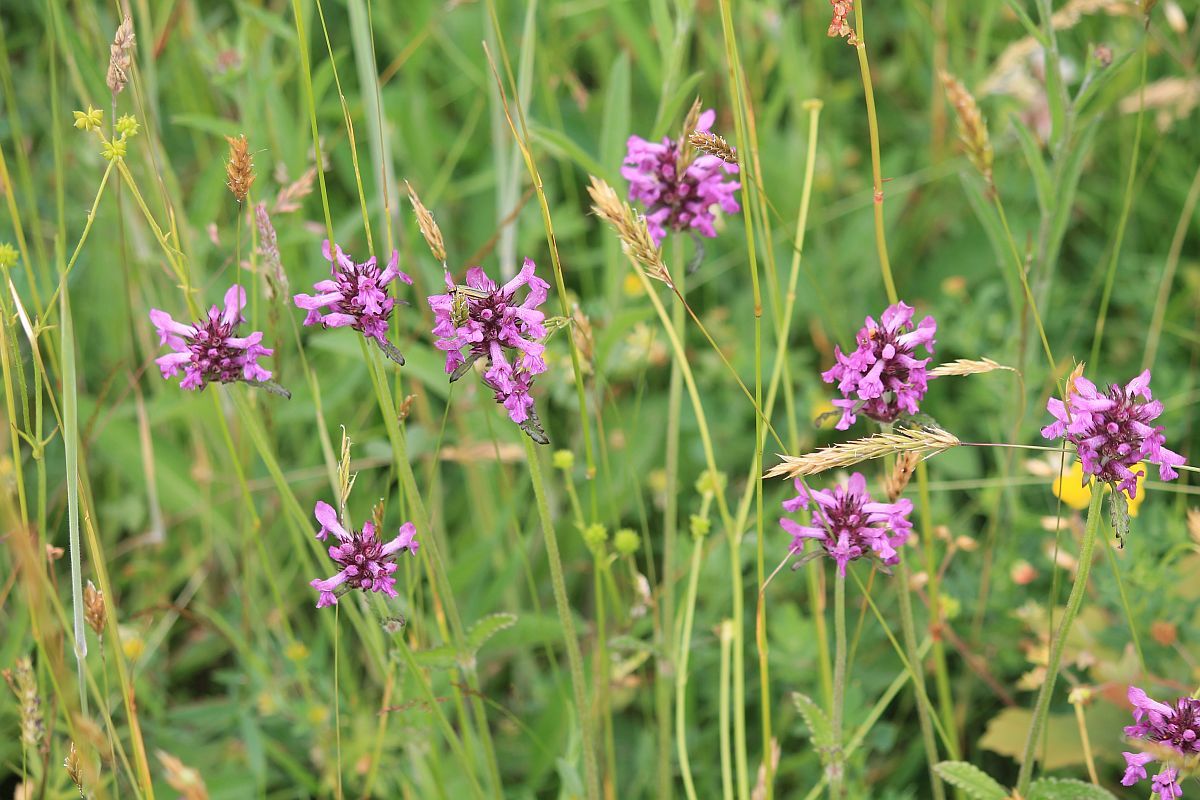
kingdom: Plantae
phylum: Tracheophyta
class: Magnoliopsida
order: Lamiales
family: Lamiaceae
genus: Betonica
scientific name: Betonica officinalis
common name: Bishop's-wort
